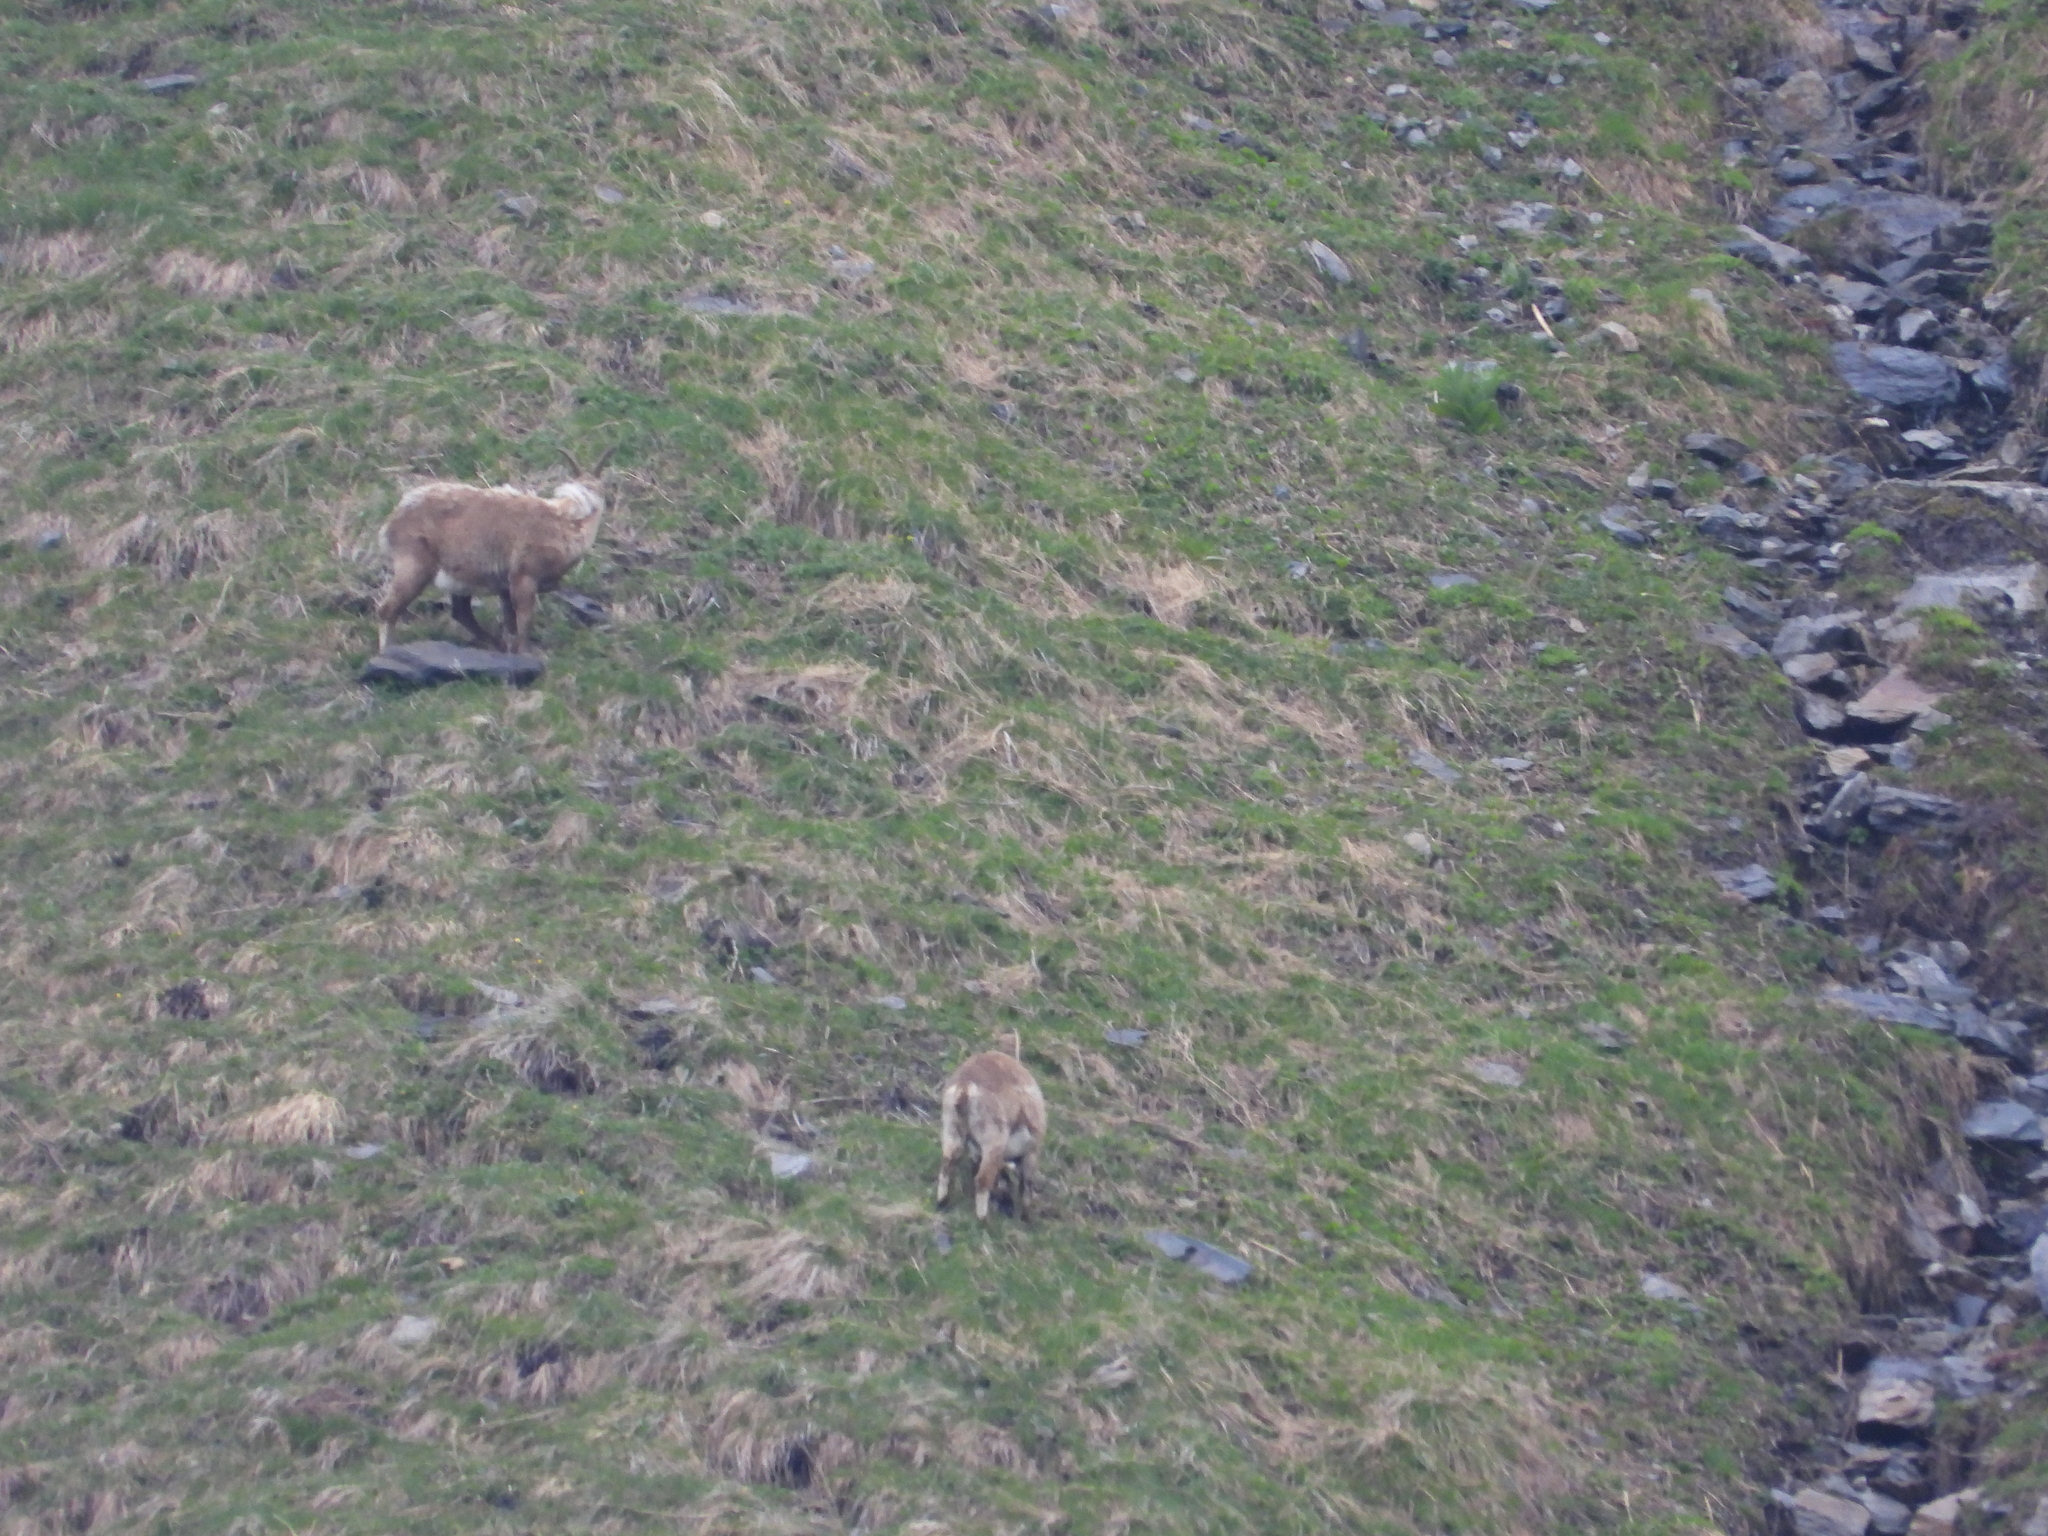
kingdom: Animalia
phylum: Chordata
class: Mammalia
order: Artiodactyla
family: Bovidae
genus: Capra
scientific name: Capra ibex
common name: Alpine ibex
